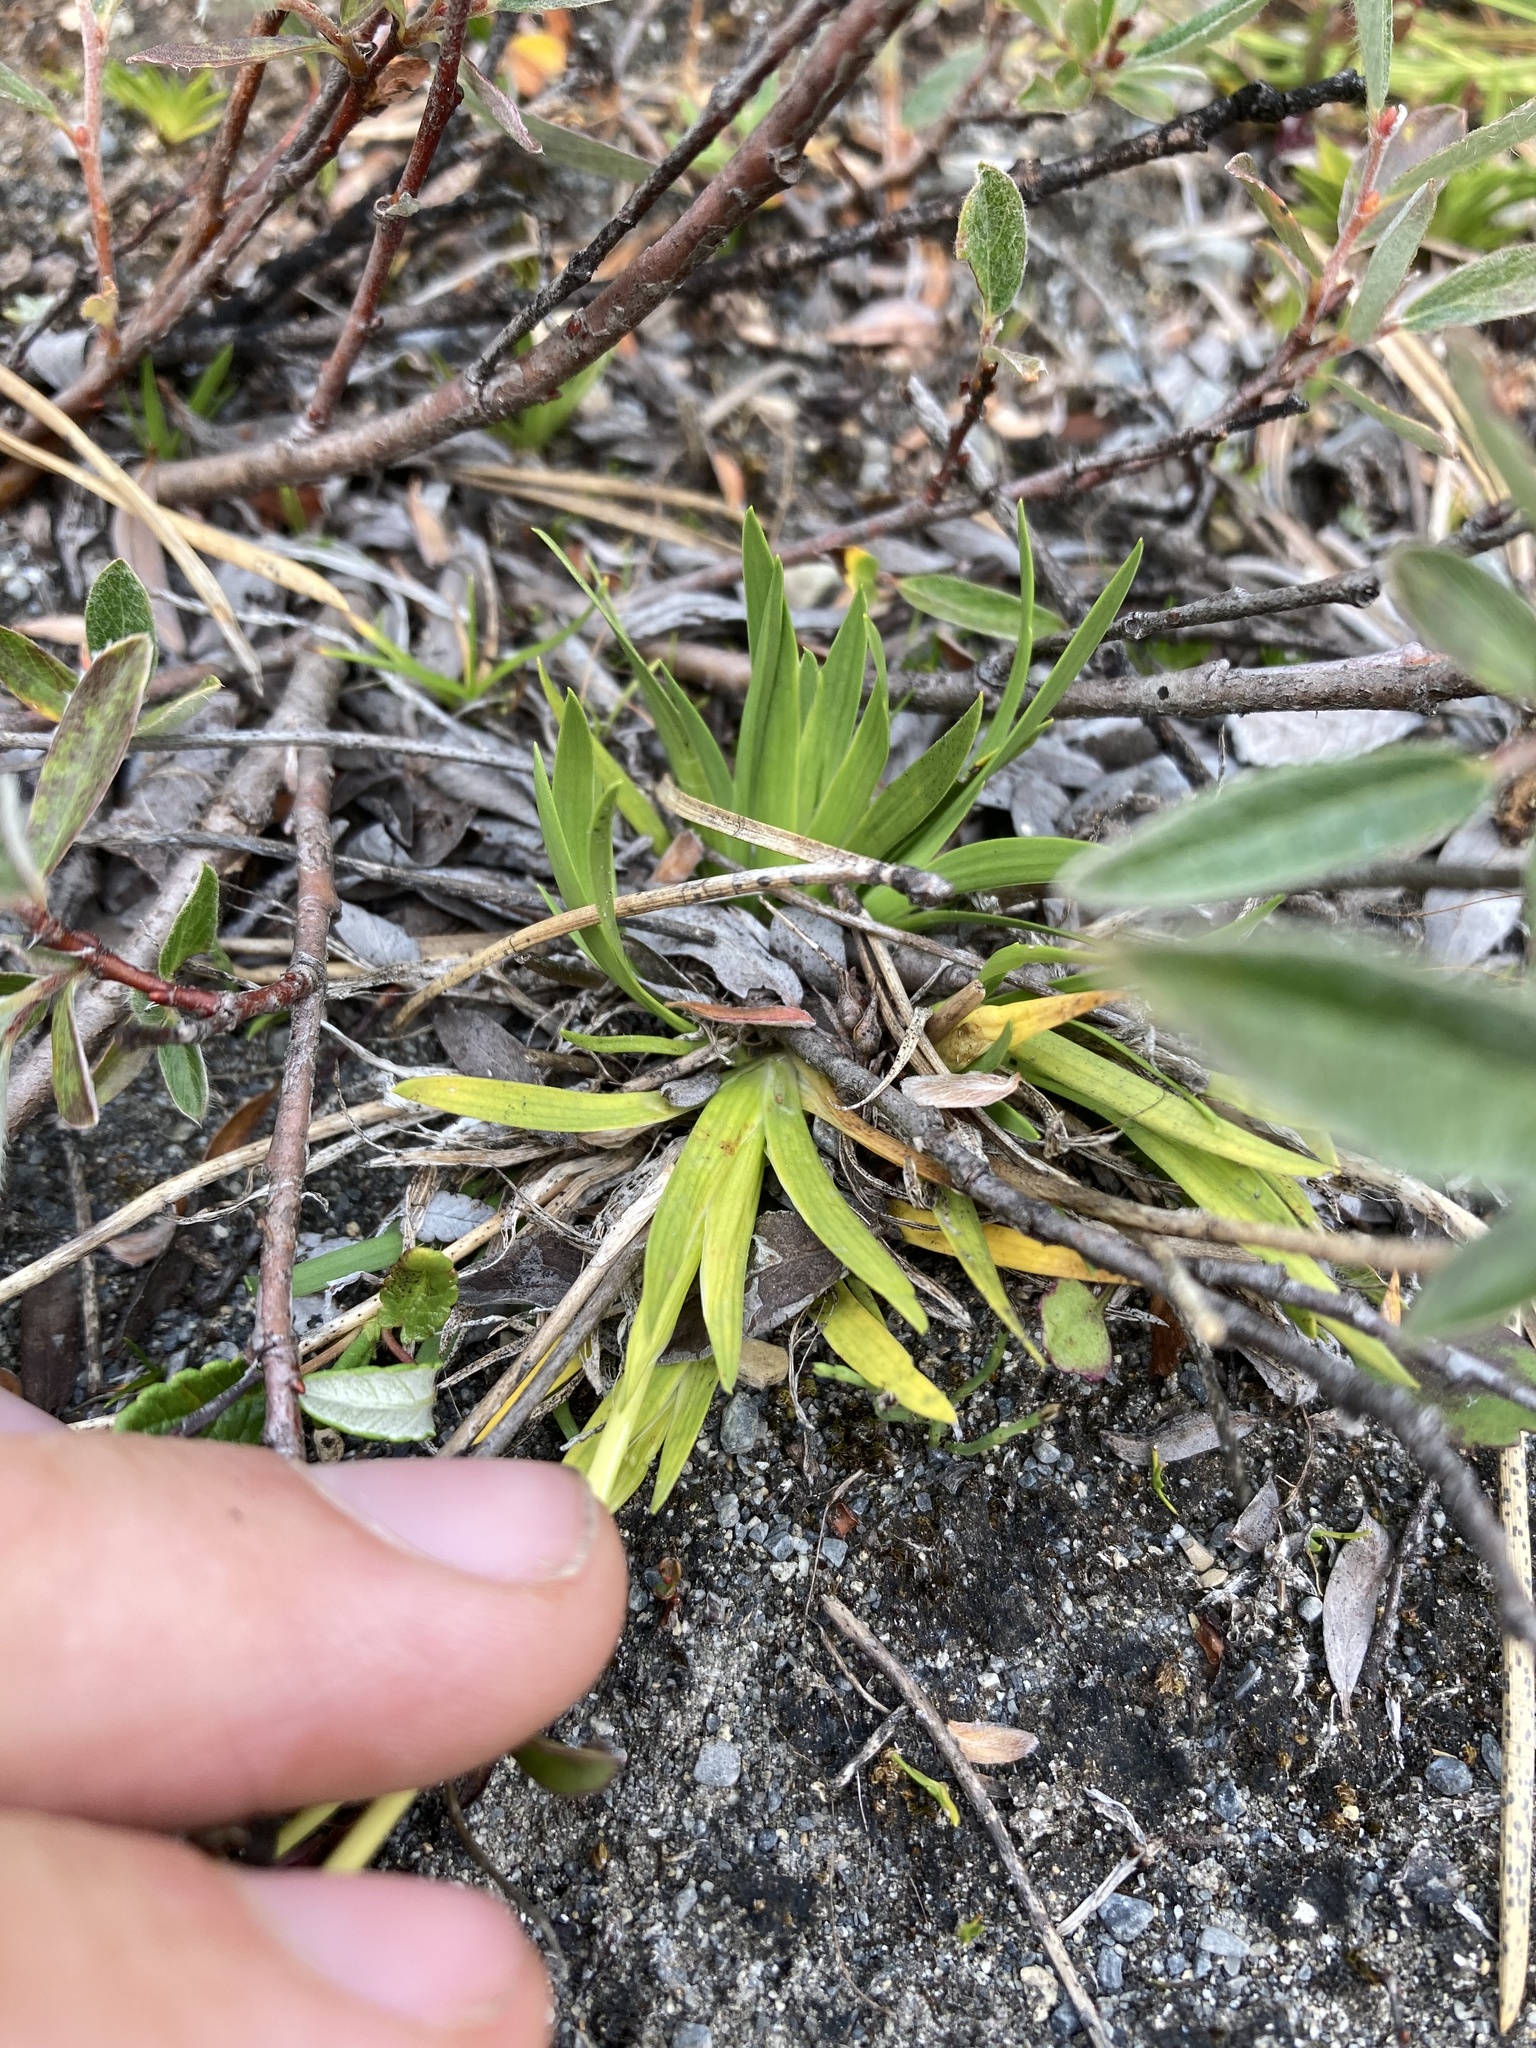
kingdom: Plantae
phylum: Tracheophyta
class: Liliopsida
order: Alismatales
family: Tofieldiaceae
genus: Triantha
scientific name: Triantha glutinosa
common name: Glutinous tofieldia
